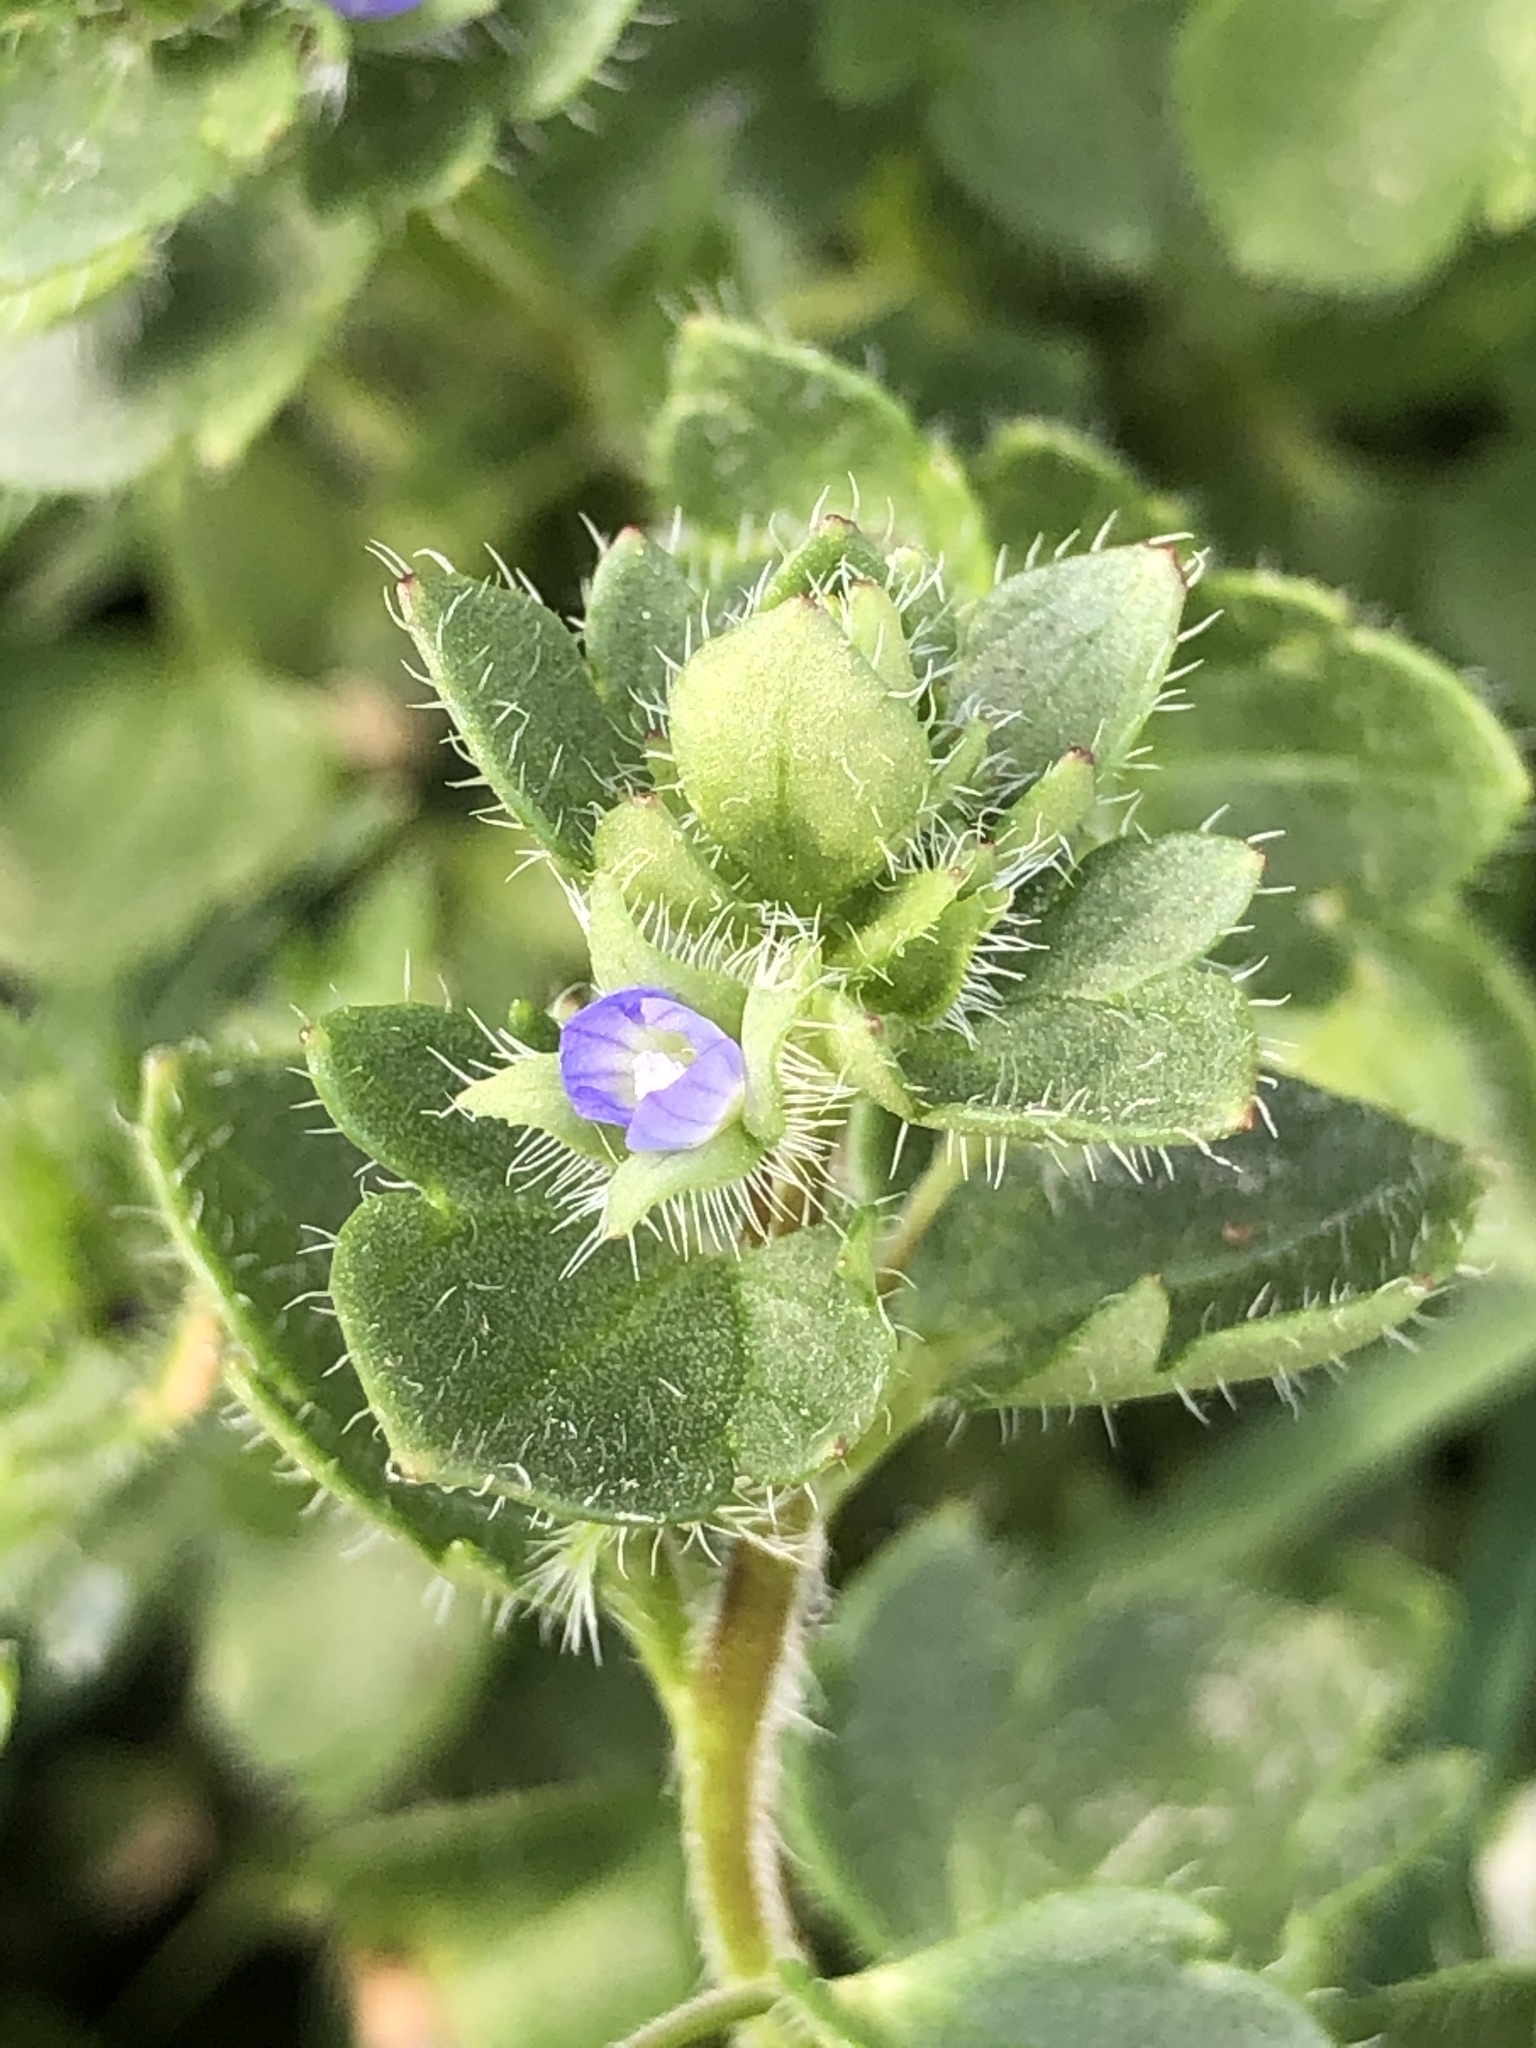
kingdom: Plantae
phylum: Tracheophyta
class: Magnoliopsida
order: Lamiales
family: Plantaginaceae
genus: Veronica
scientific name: Veronica hederifolia
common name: Ivy-leaved speedwell
